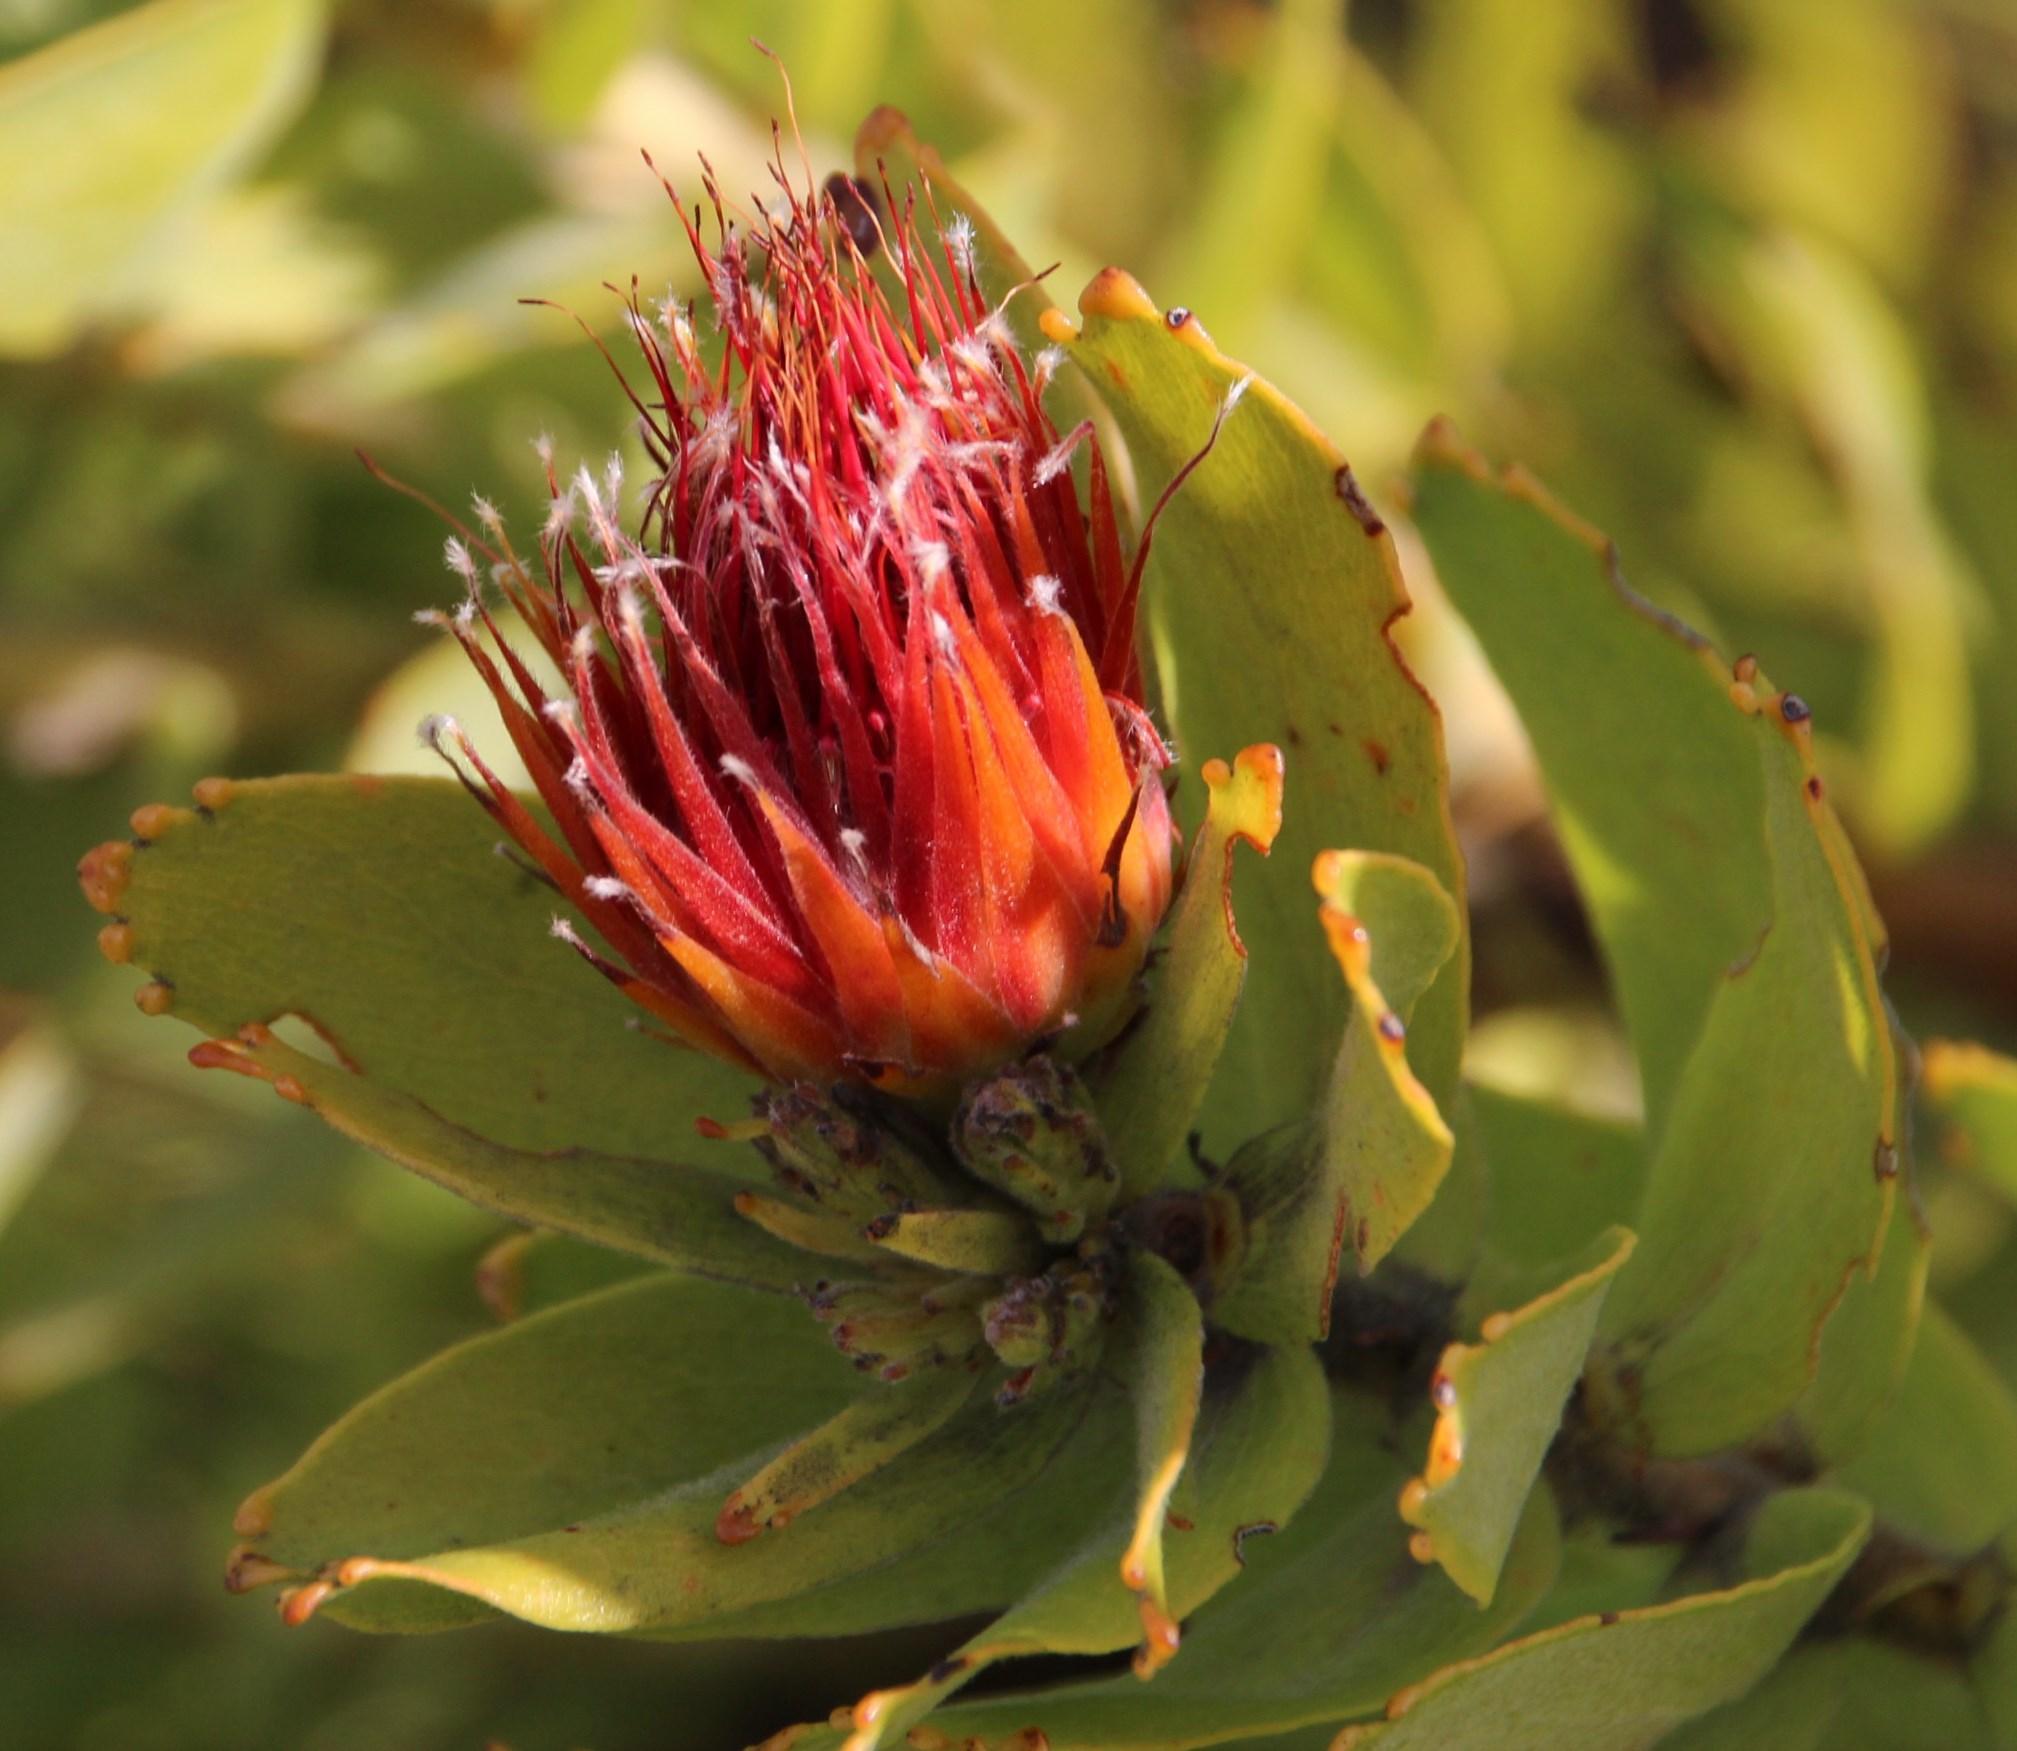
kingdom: Plantae
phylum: Tracheophyta
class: Magnoliopsida
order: Proteales
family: Proteaceae
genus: Leucospermum
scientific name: Leucospermum oleifolium
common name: Matches
